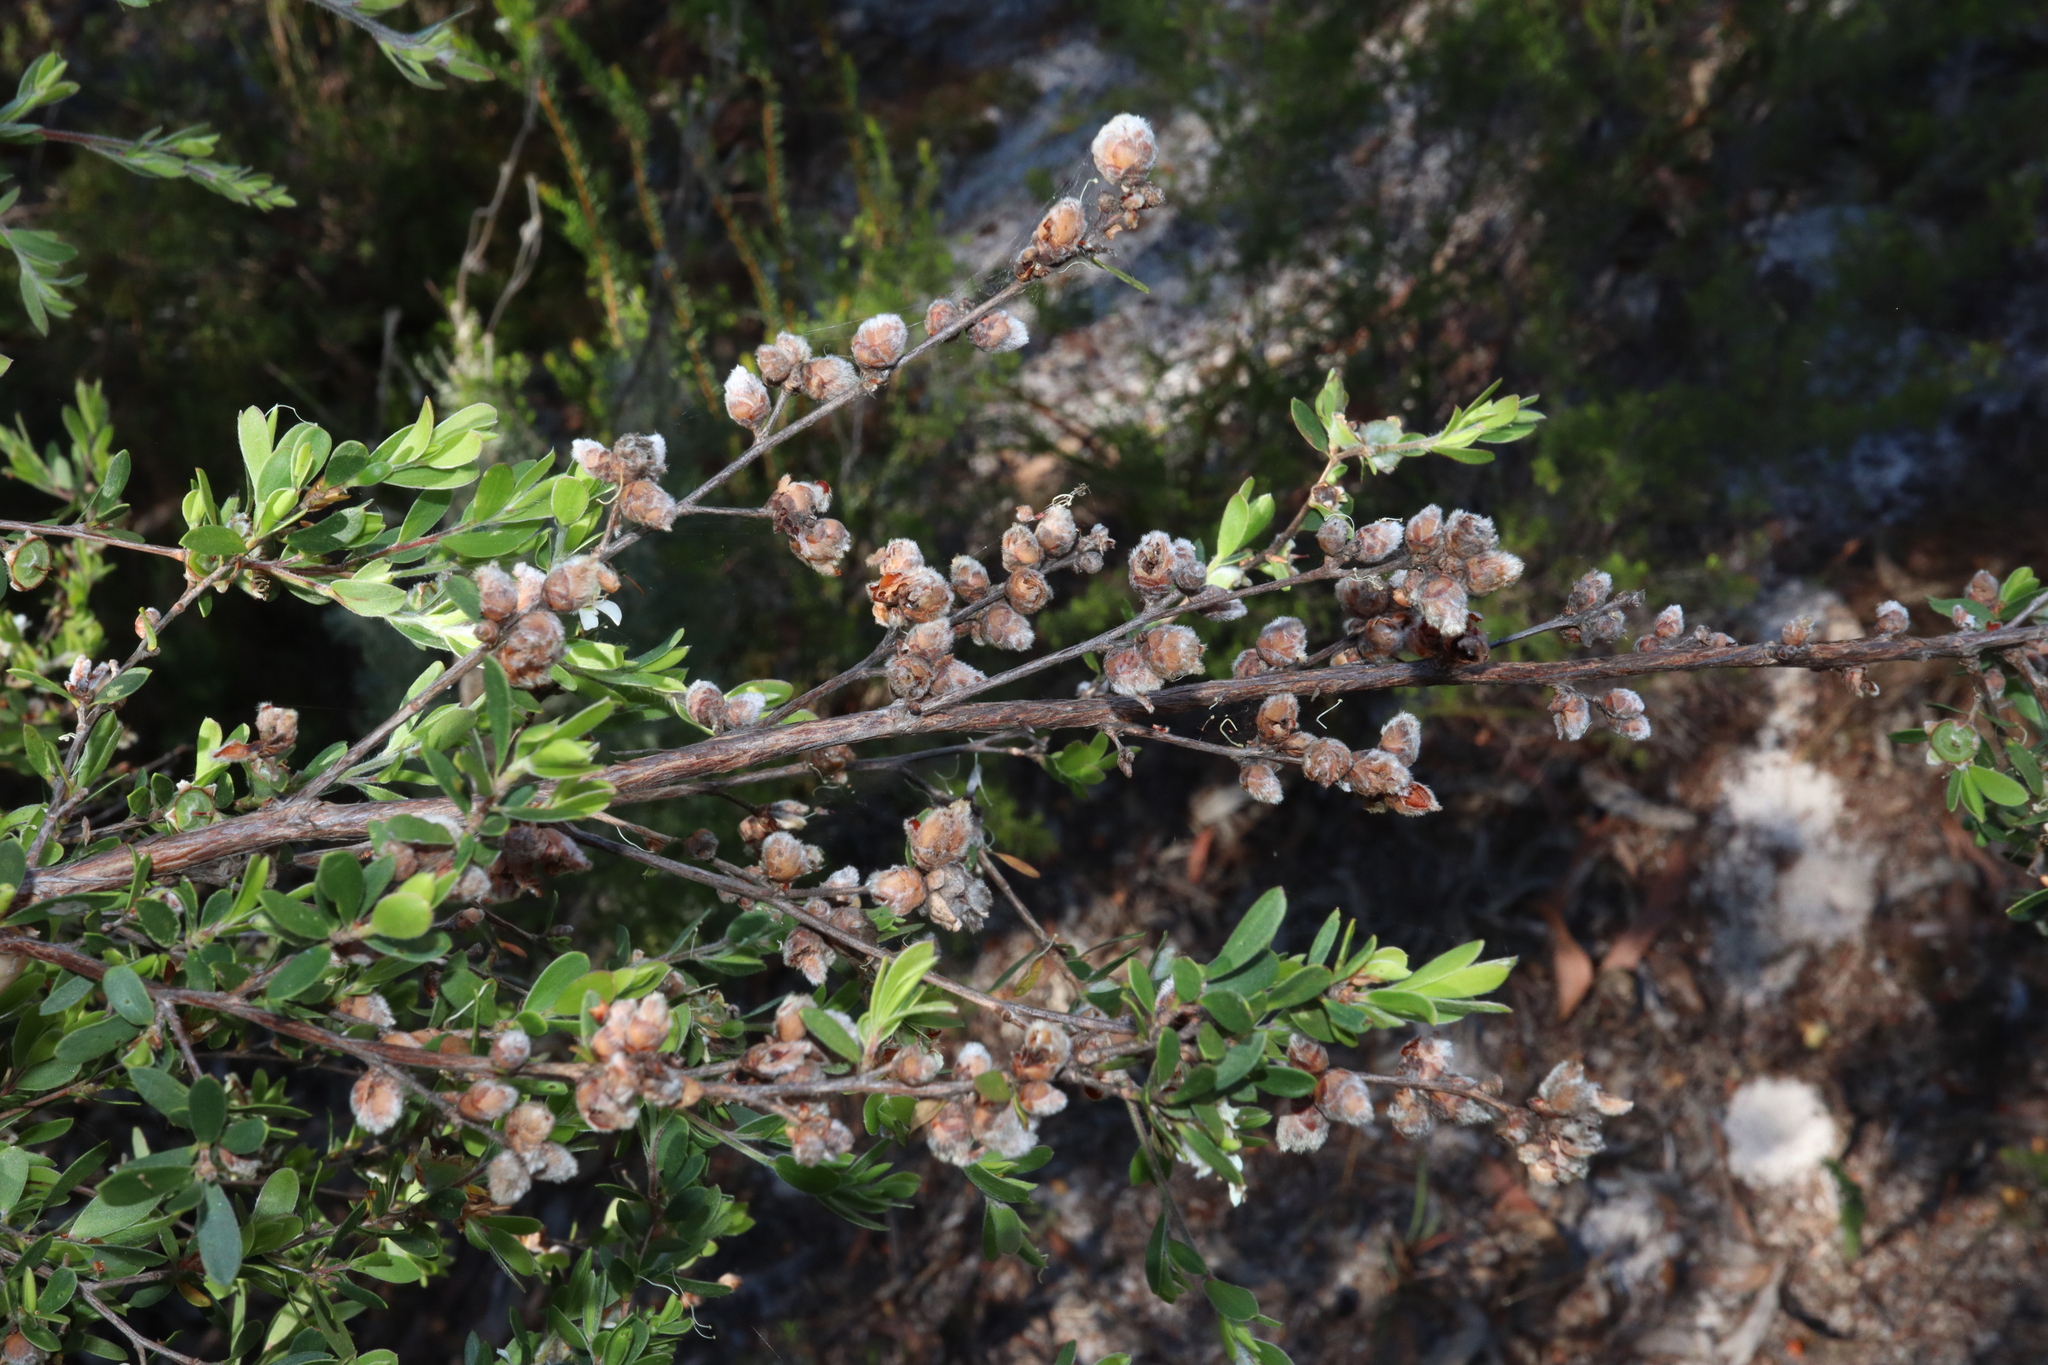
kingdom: Animalia
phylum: Arthropoda
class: Insecta
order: Diptera
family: Cecidomyiidae
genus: Dasineura
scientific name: Dasineura
